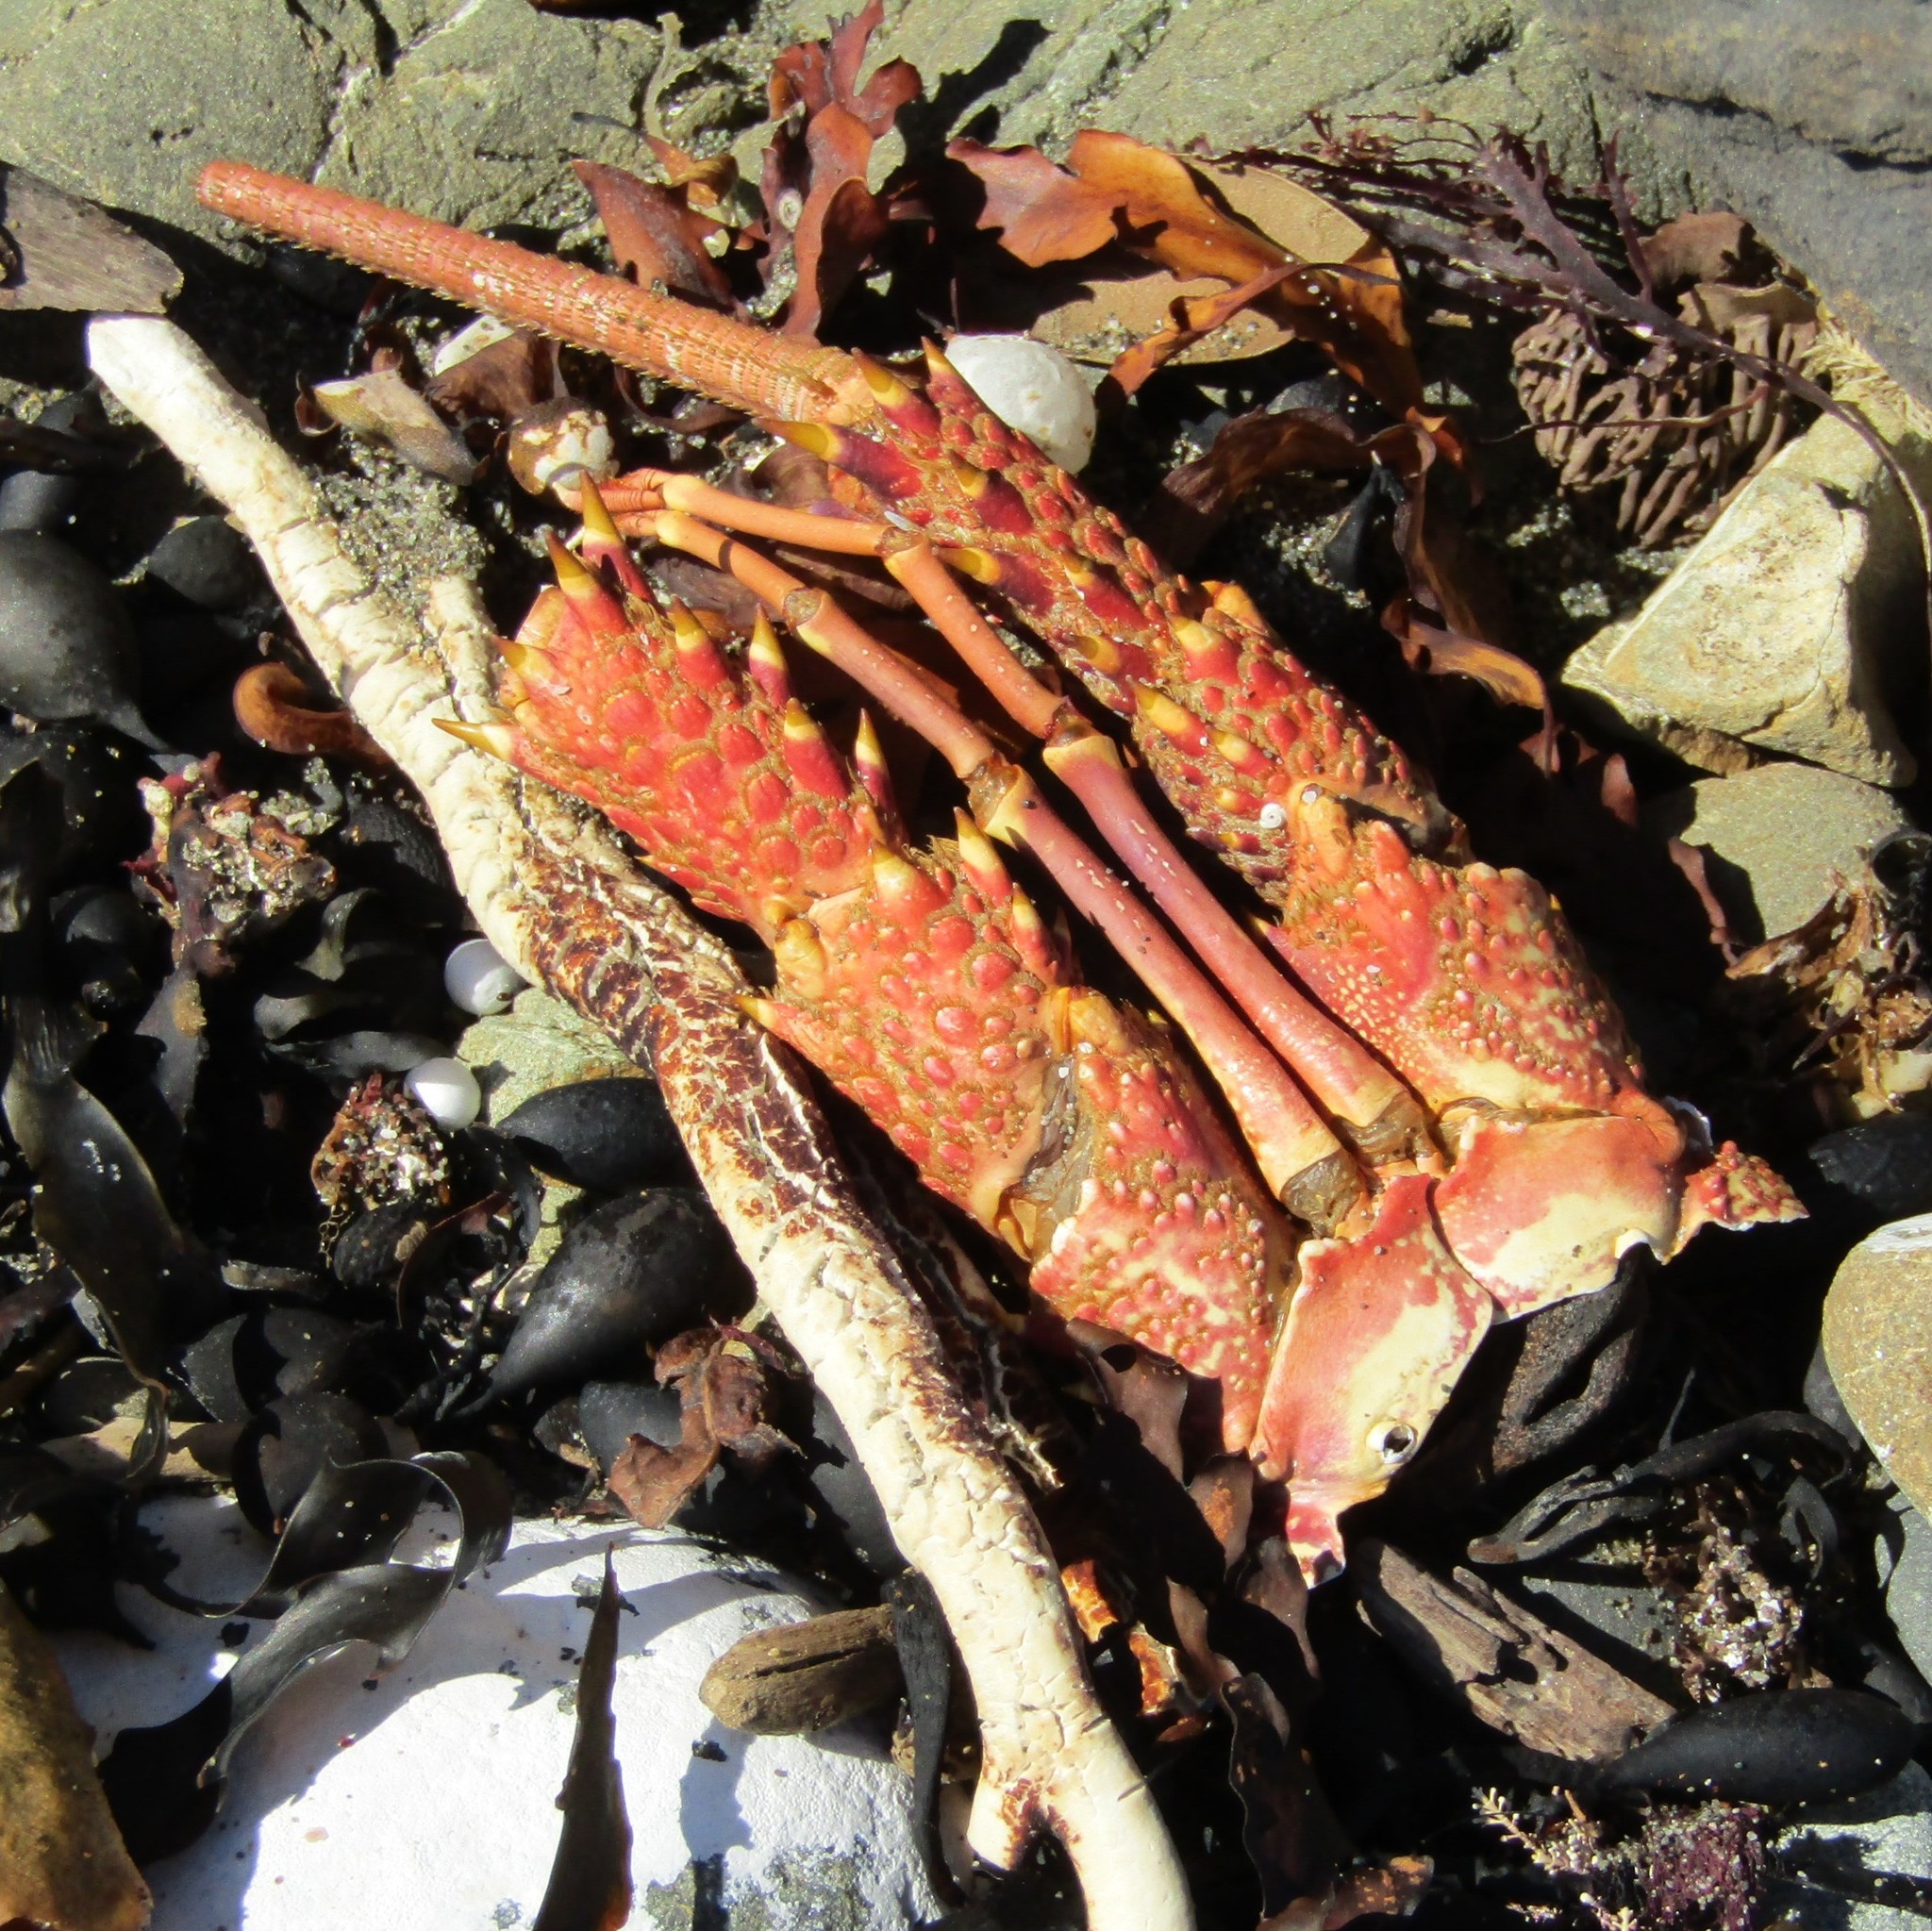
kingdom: Animalia
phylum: Arthropoda
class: Malacostraca
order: Decapoda
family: Palinuridae
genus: Jasus
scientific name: Jasus edwardsii
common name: Red rock lobster
